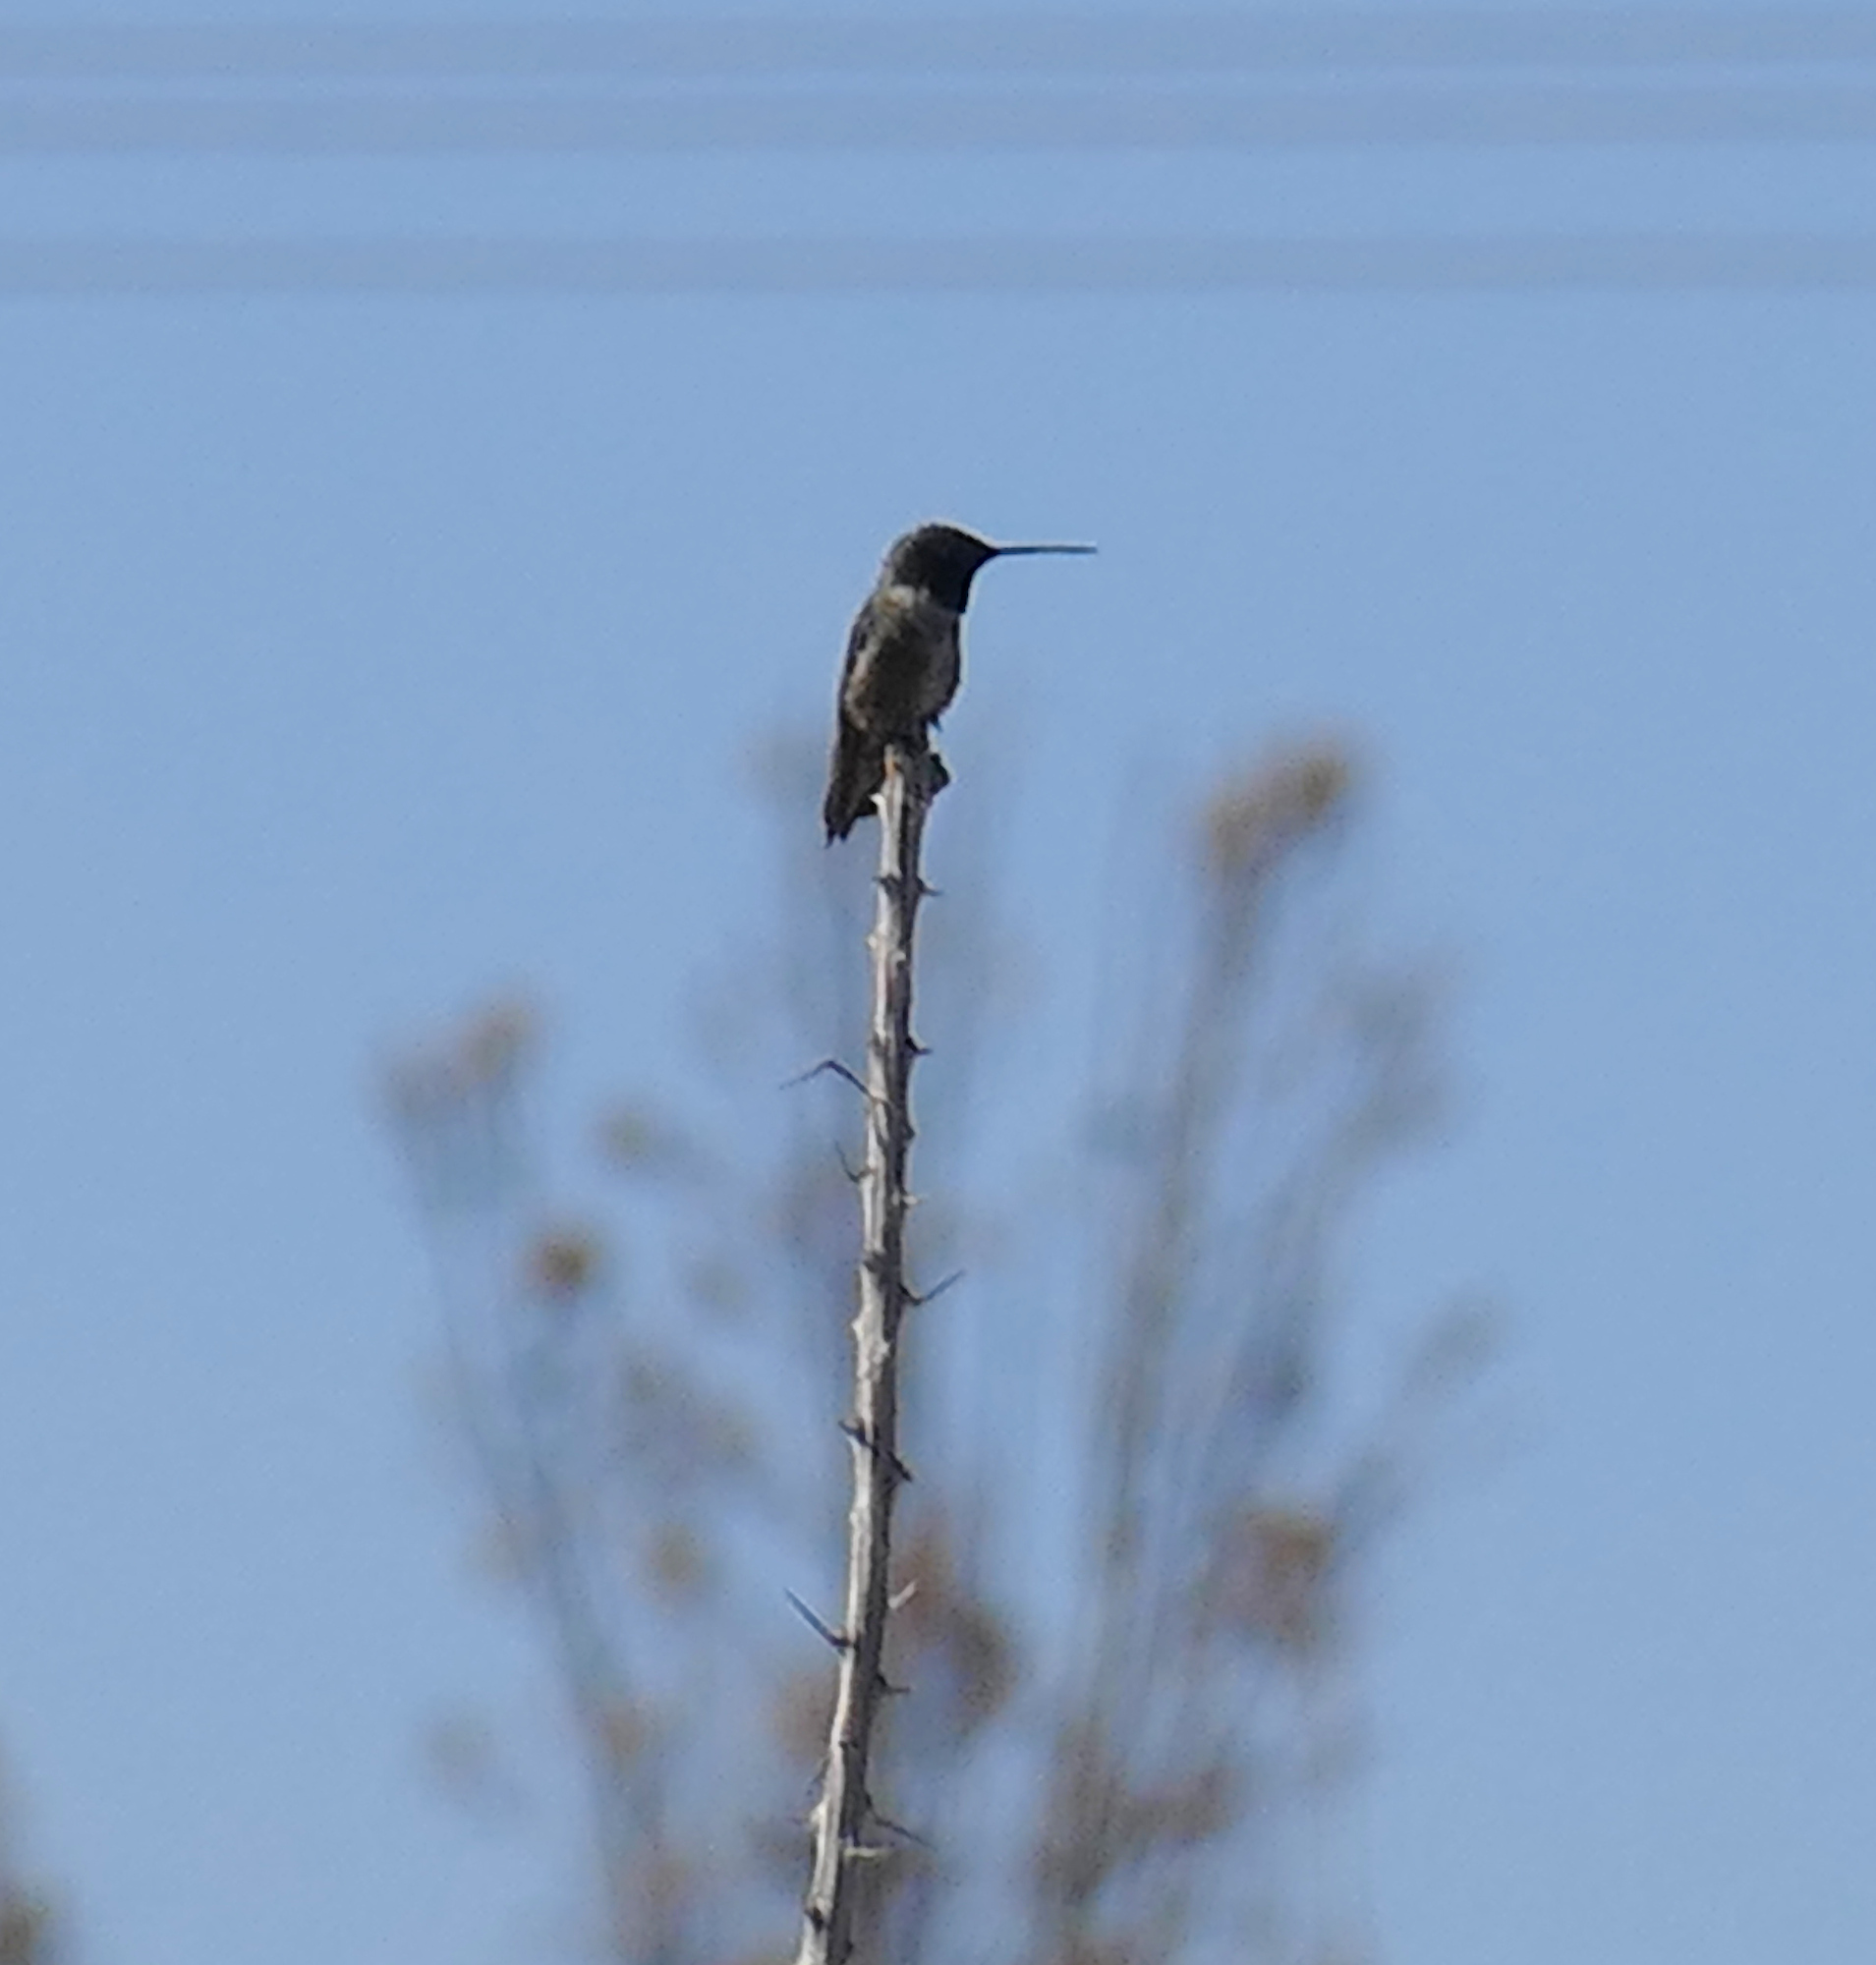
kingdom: Animalia
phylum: Chordata
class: Aves
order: Apodiformes
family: Trochilidae
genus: Archilochus
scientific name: Archilochus alexandri
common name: Black-chinned hummingbird
